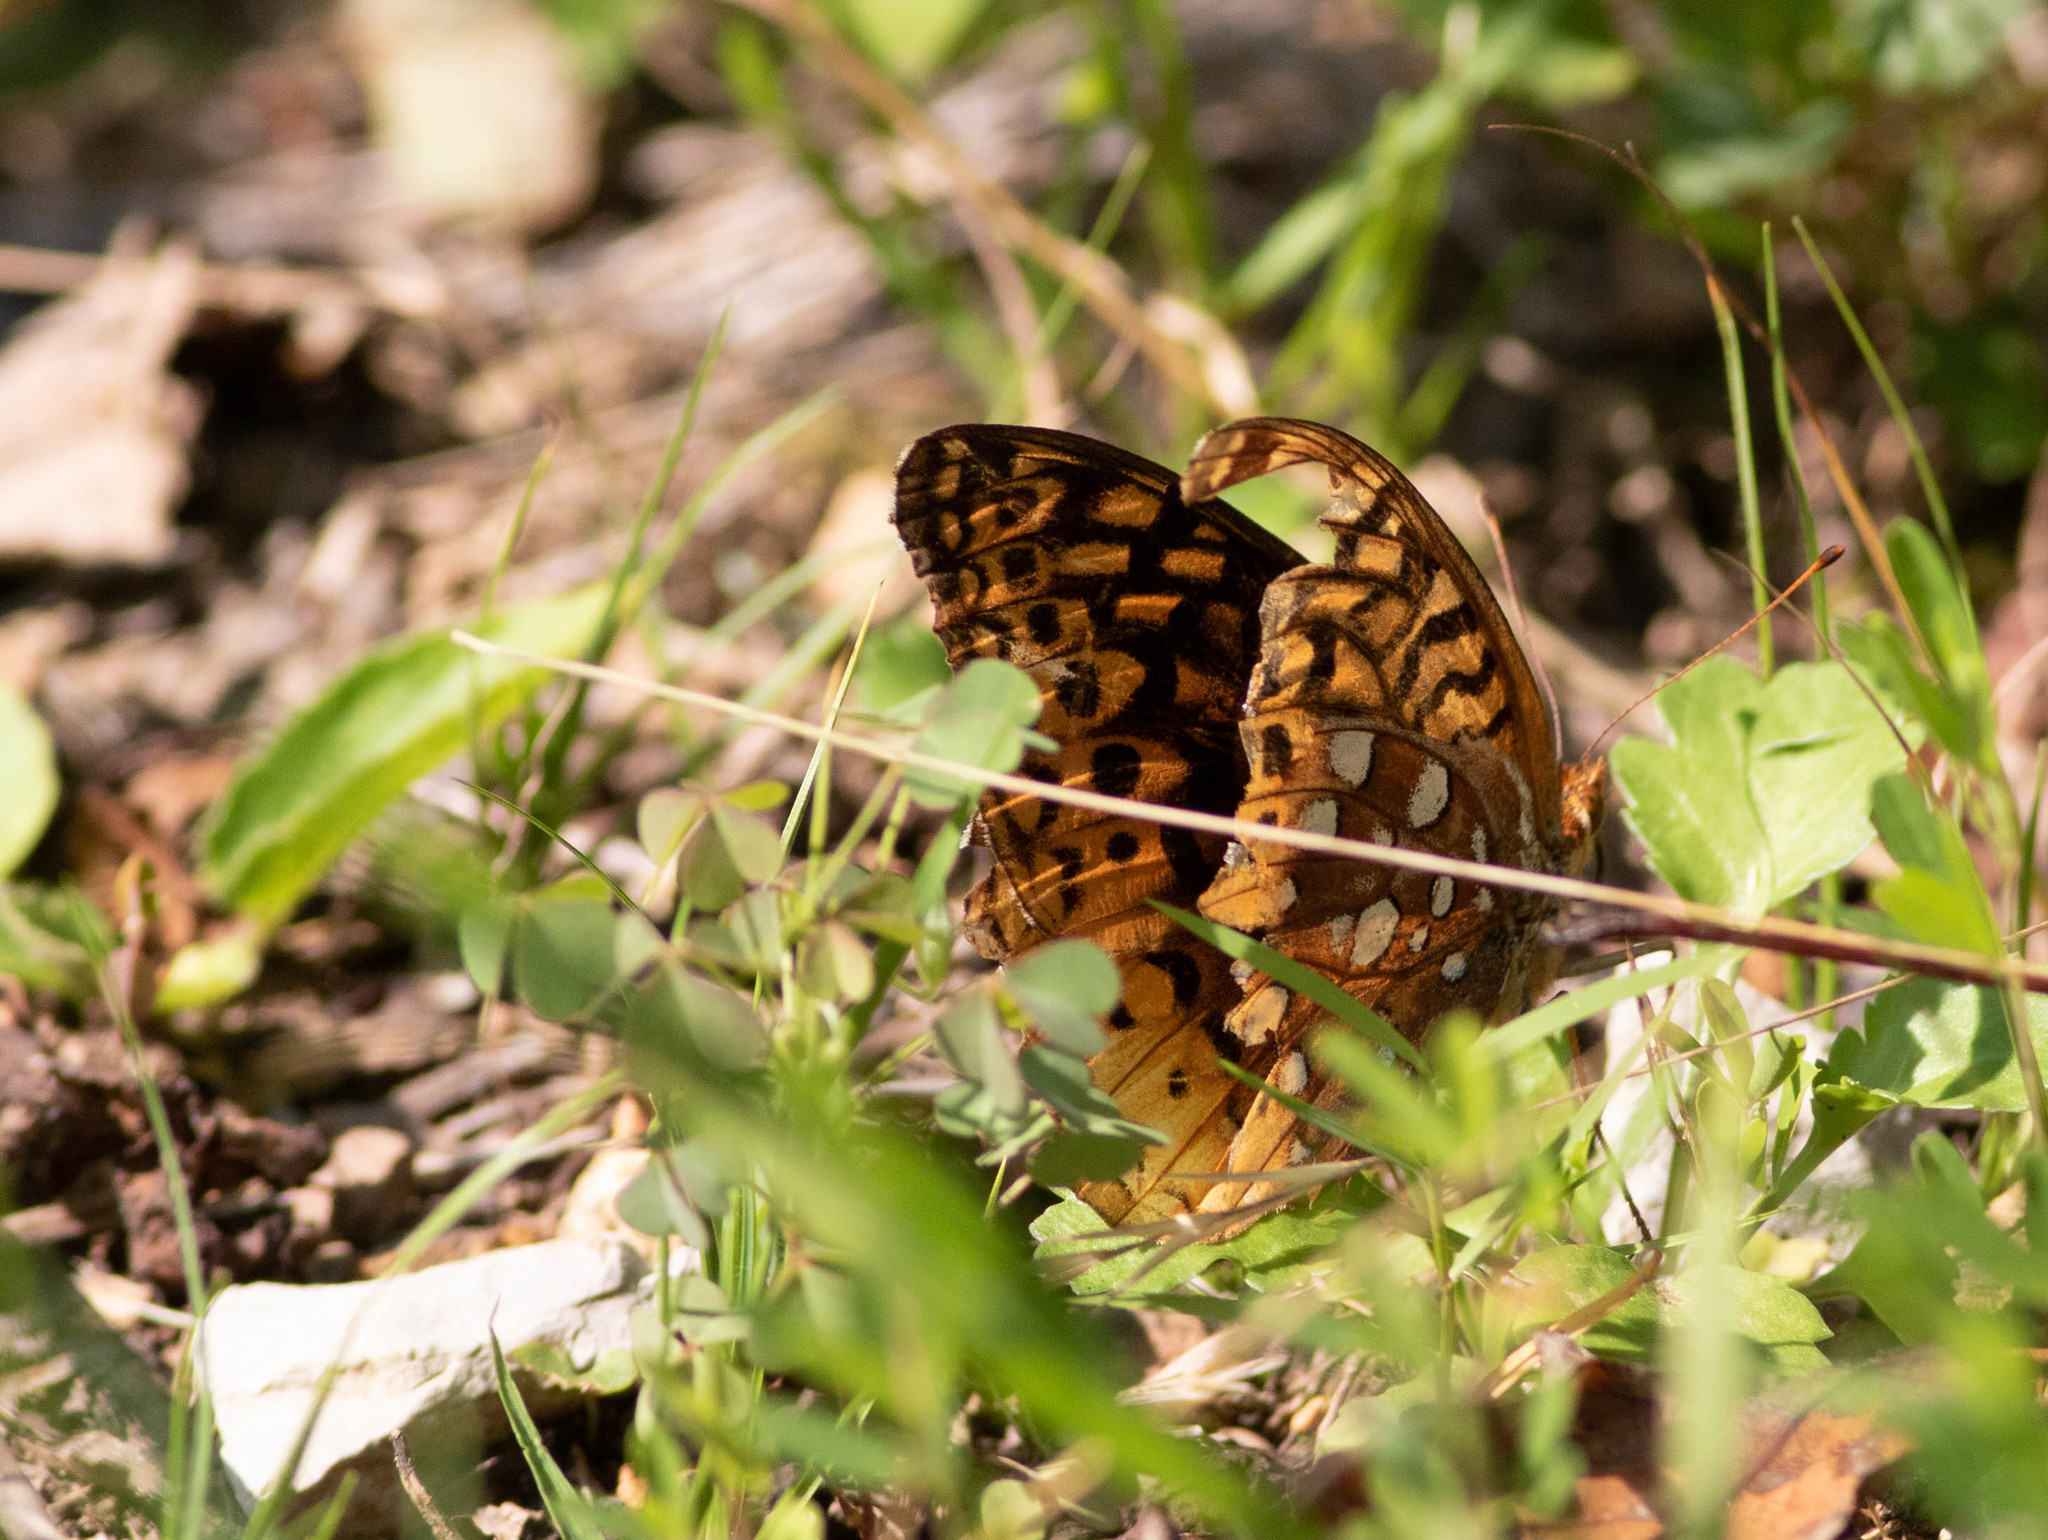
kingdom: Animalia
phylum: Arthropoda
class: Insecta
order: Lepidoptera
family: Nymphalidae
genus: Speyeria
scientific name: Speyeria cybele
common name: Great spangled fritillary
